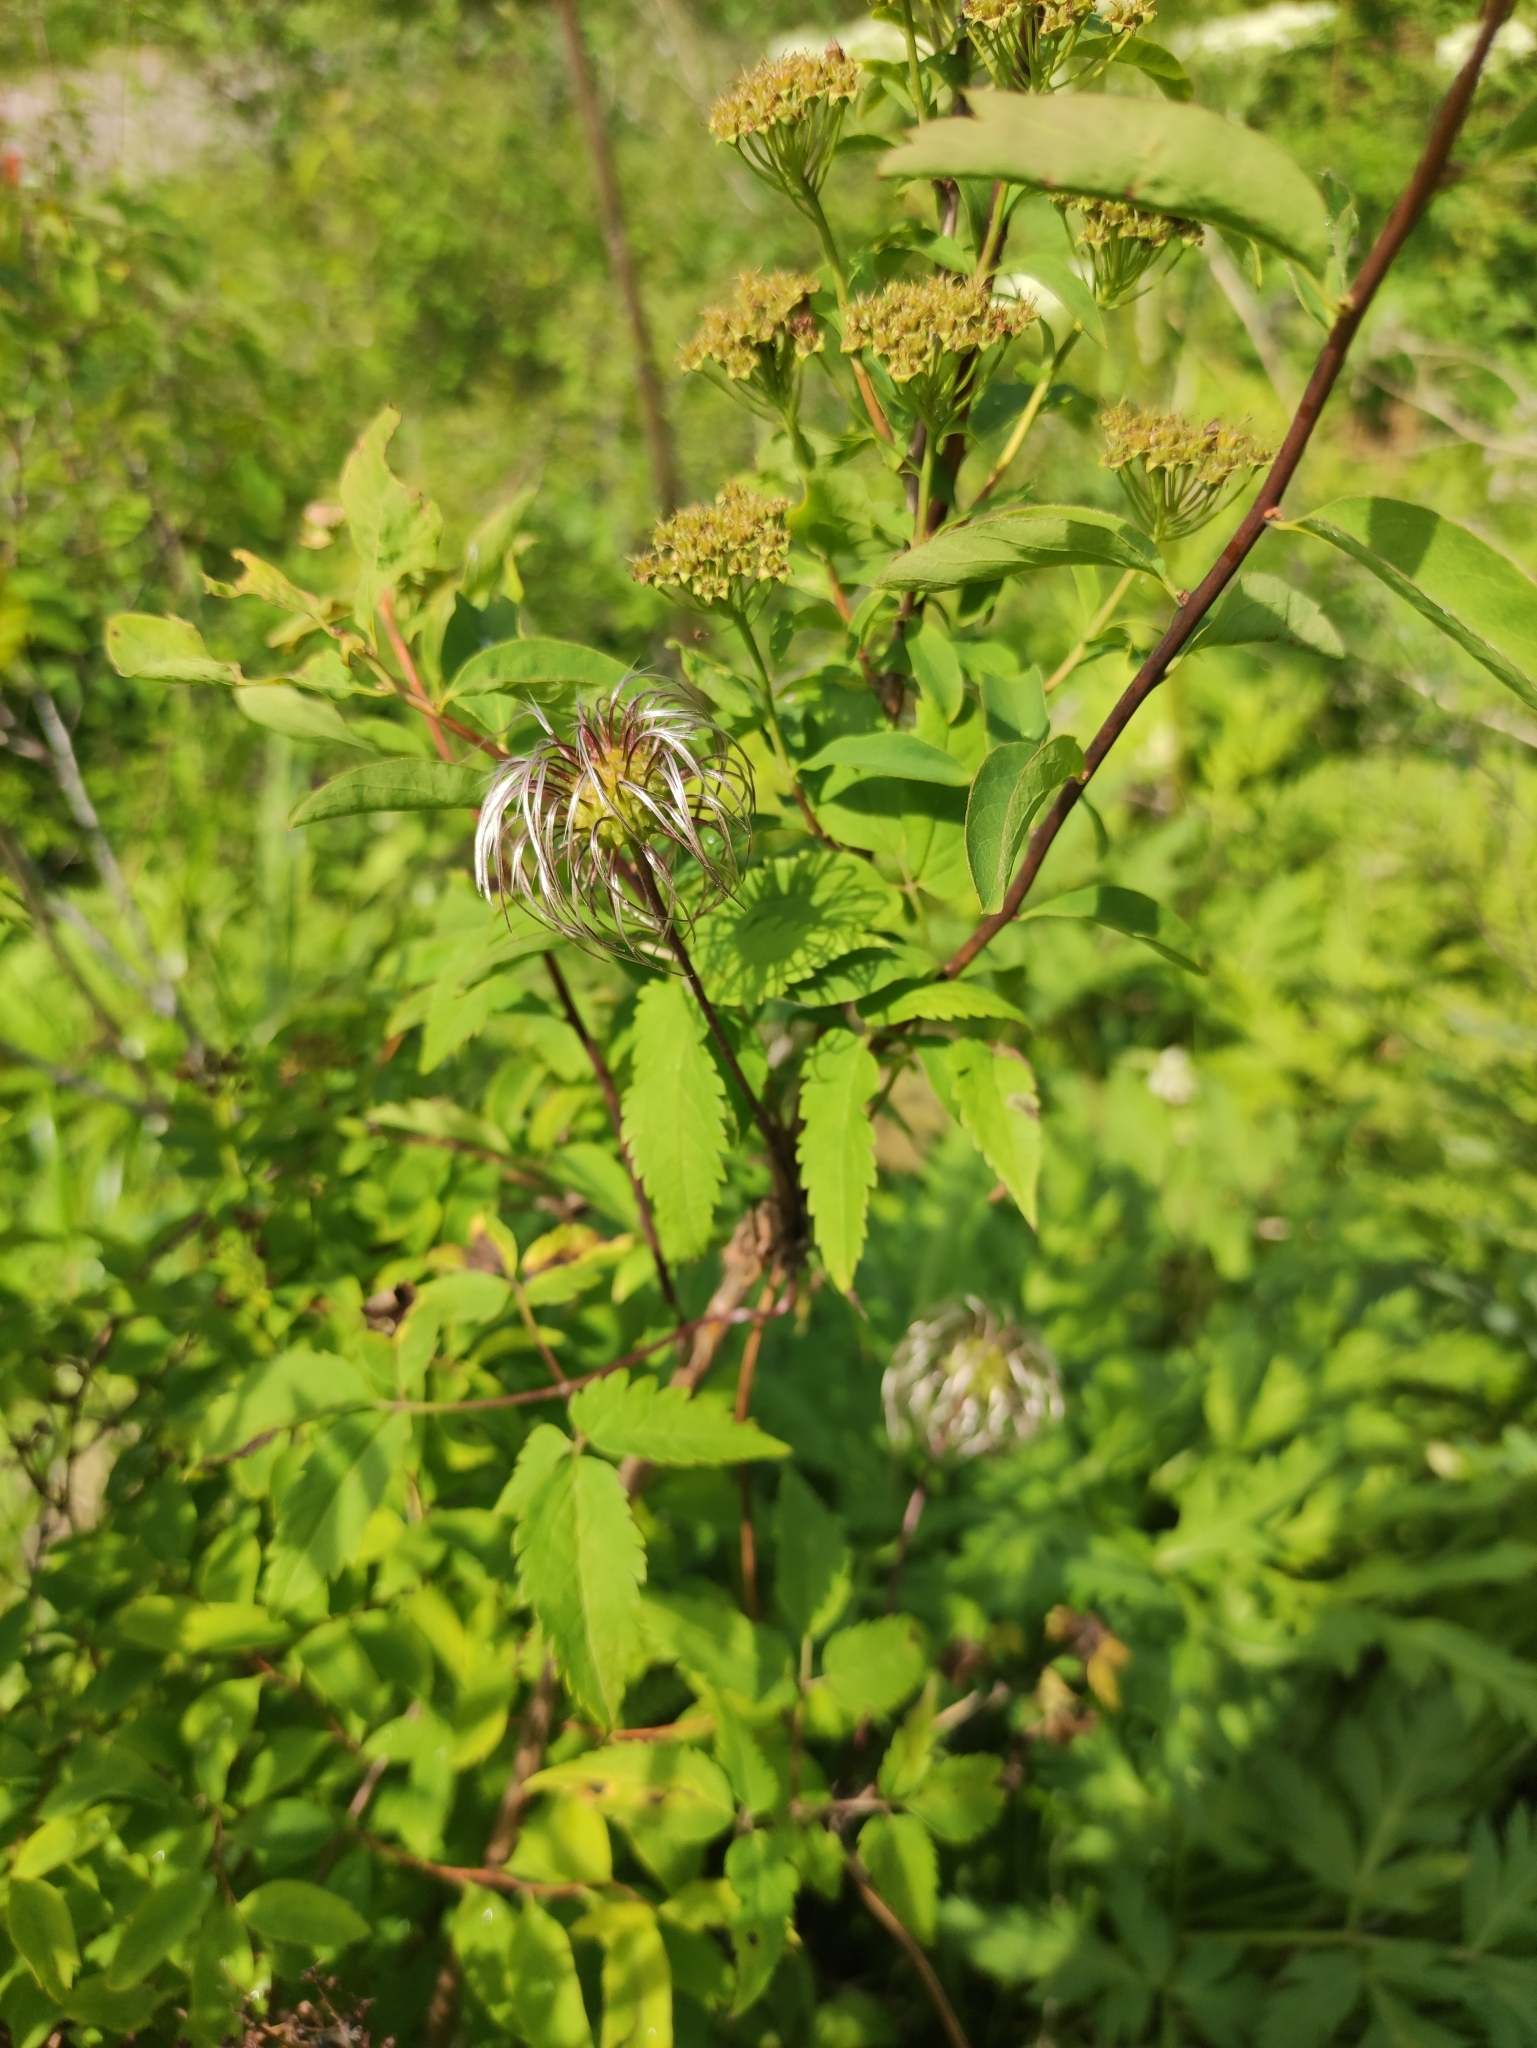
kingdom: Plantae
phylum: Tracheophyta
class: Magnoliopsida
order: Ranunculales
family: Ranunculaceae
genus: Clematis
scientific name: Clematis sibirica
